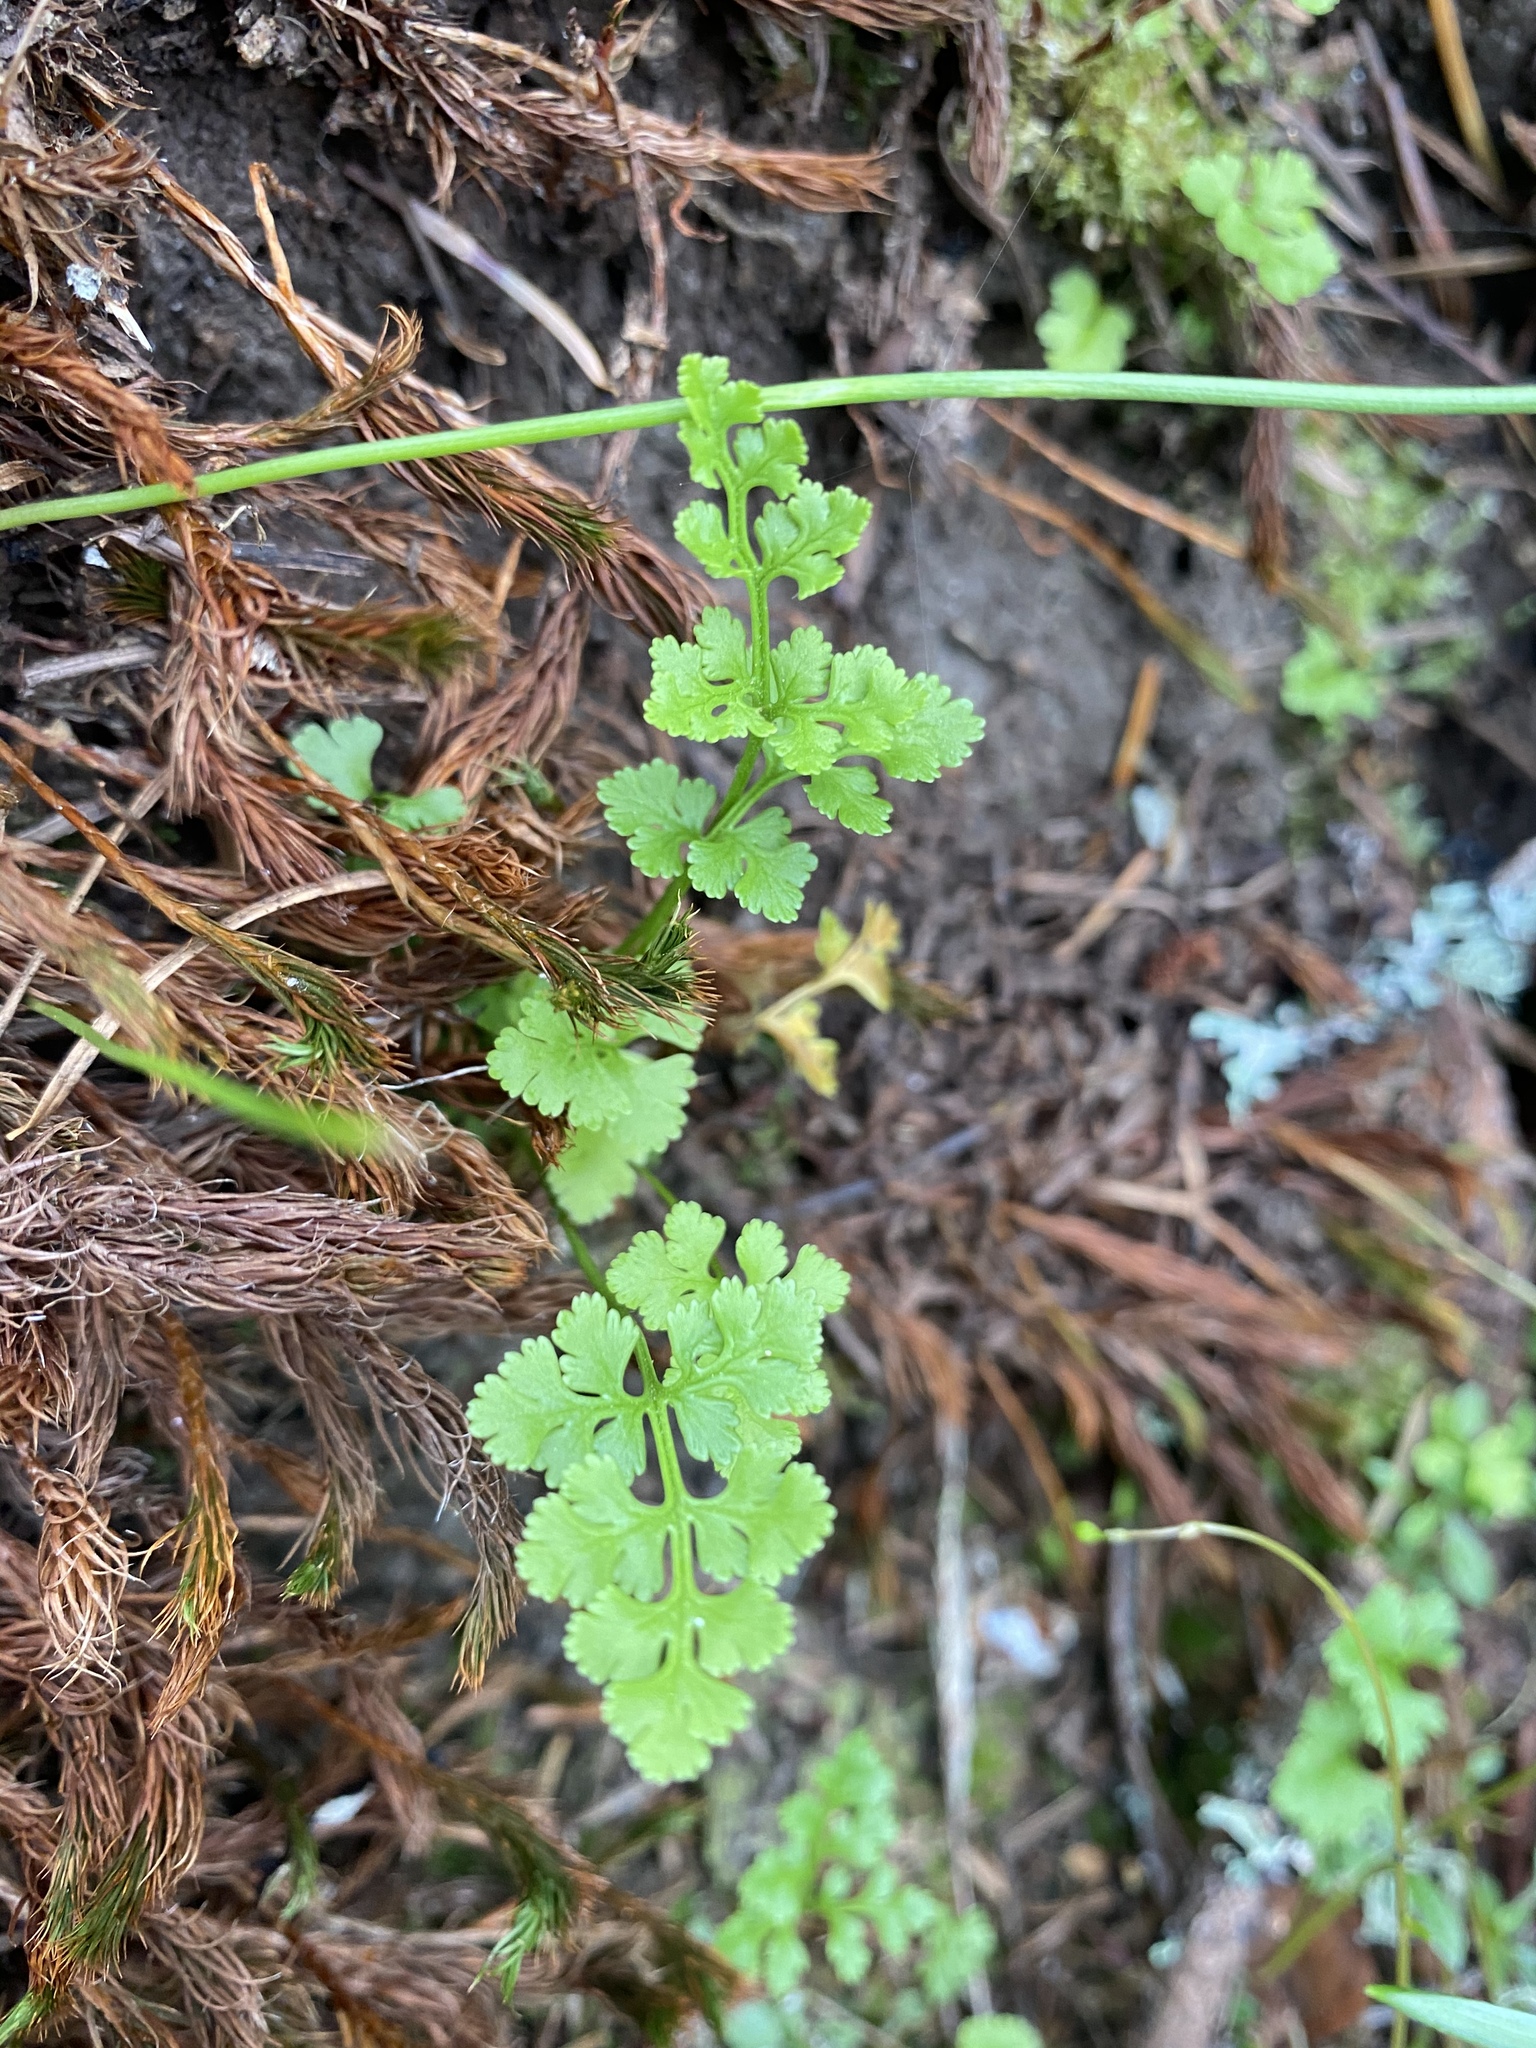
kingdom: Plantae
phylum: Tracheophyta
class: Polypodiopsida
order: Polypodiales
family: Pteridaceae
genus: Cryptogramma
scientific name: Cryptogramma acrostichoides
